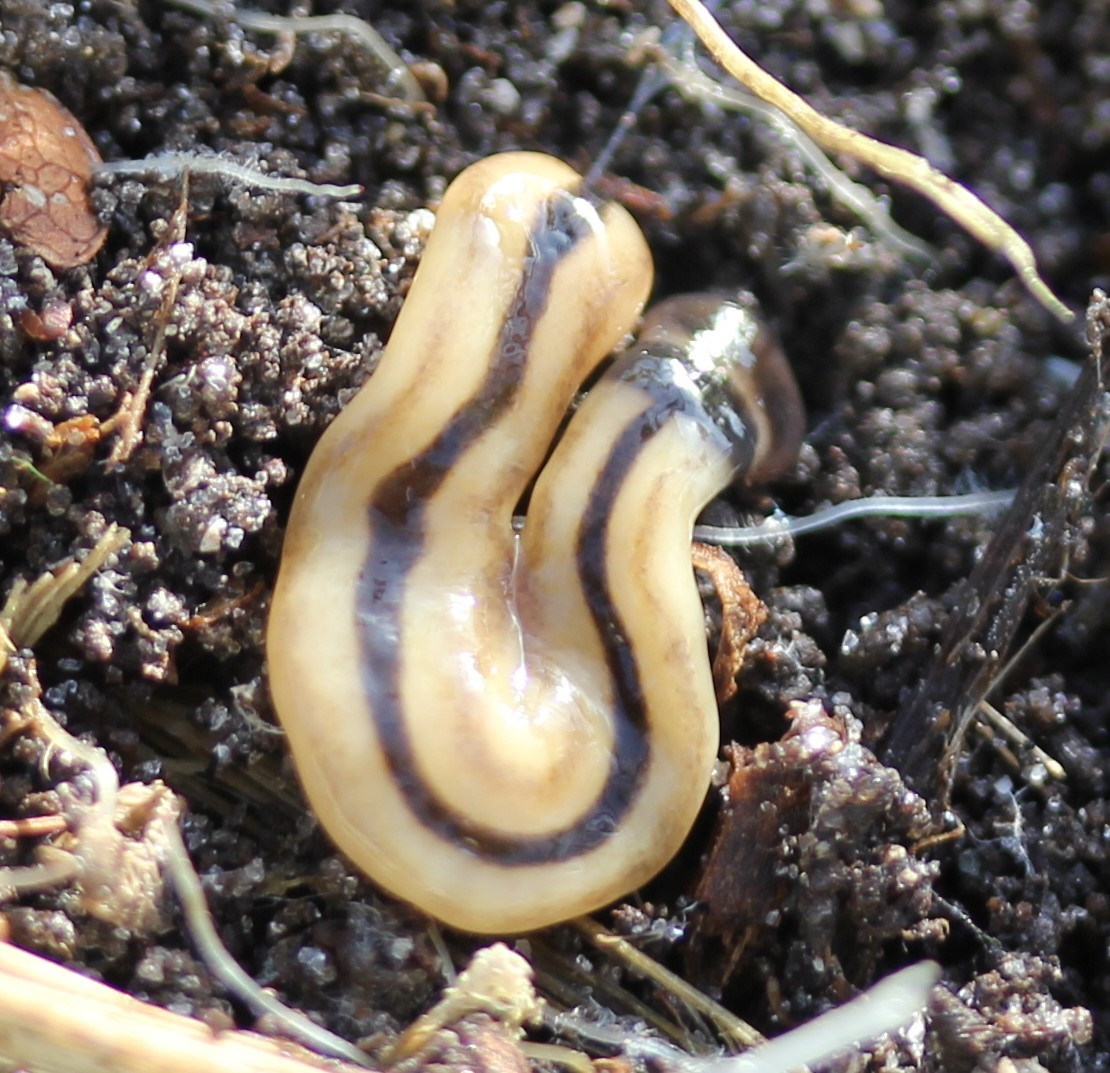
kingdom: Animalia
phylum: Platyhelminthes
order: Tricladida
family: Geoplanidae
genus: Bipalium
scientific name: Bipalium vagum
